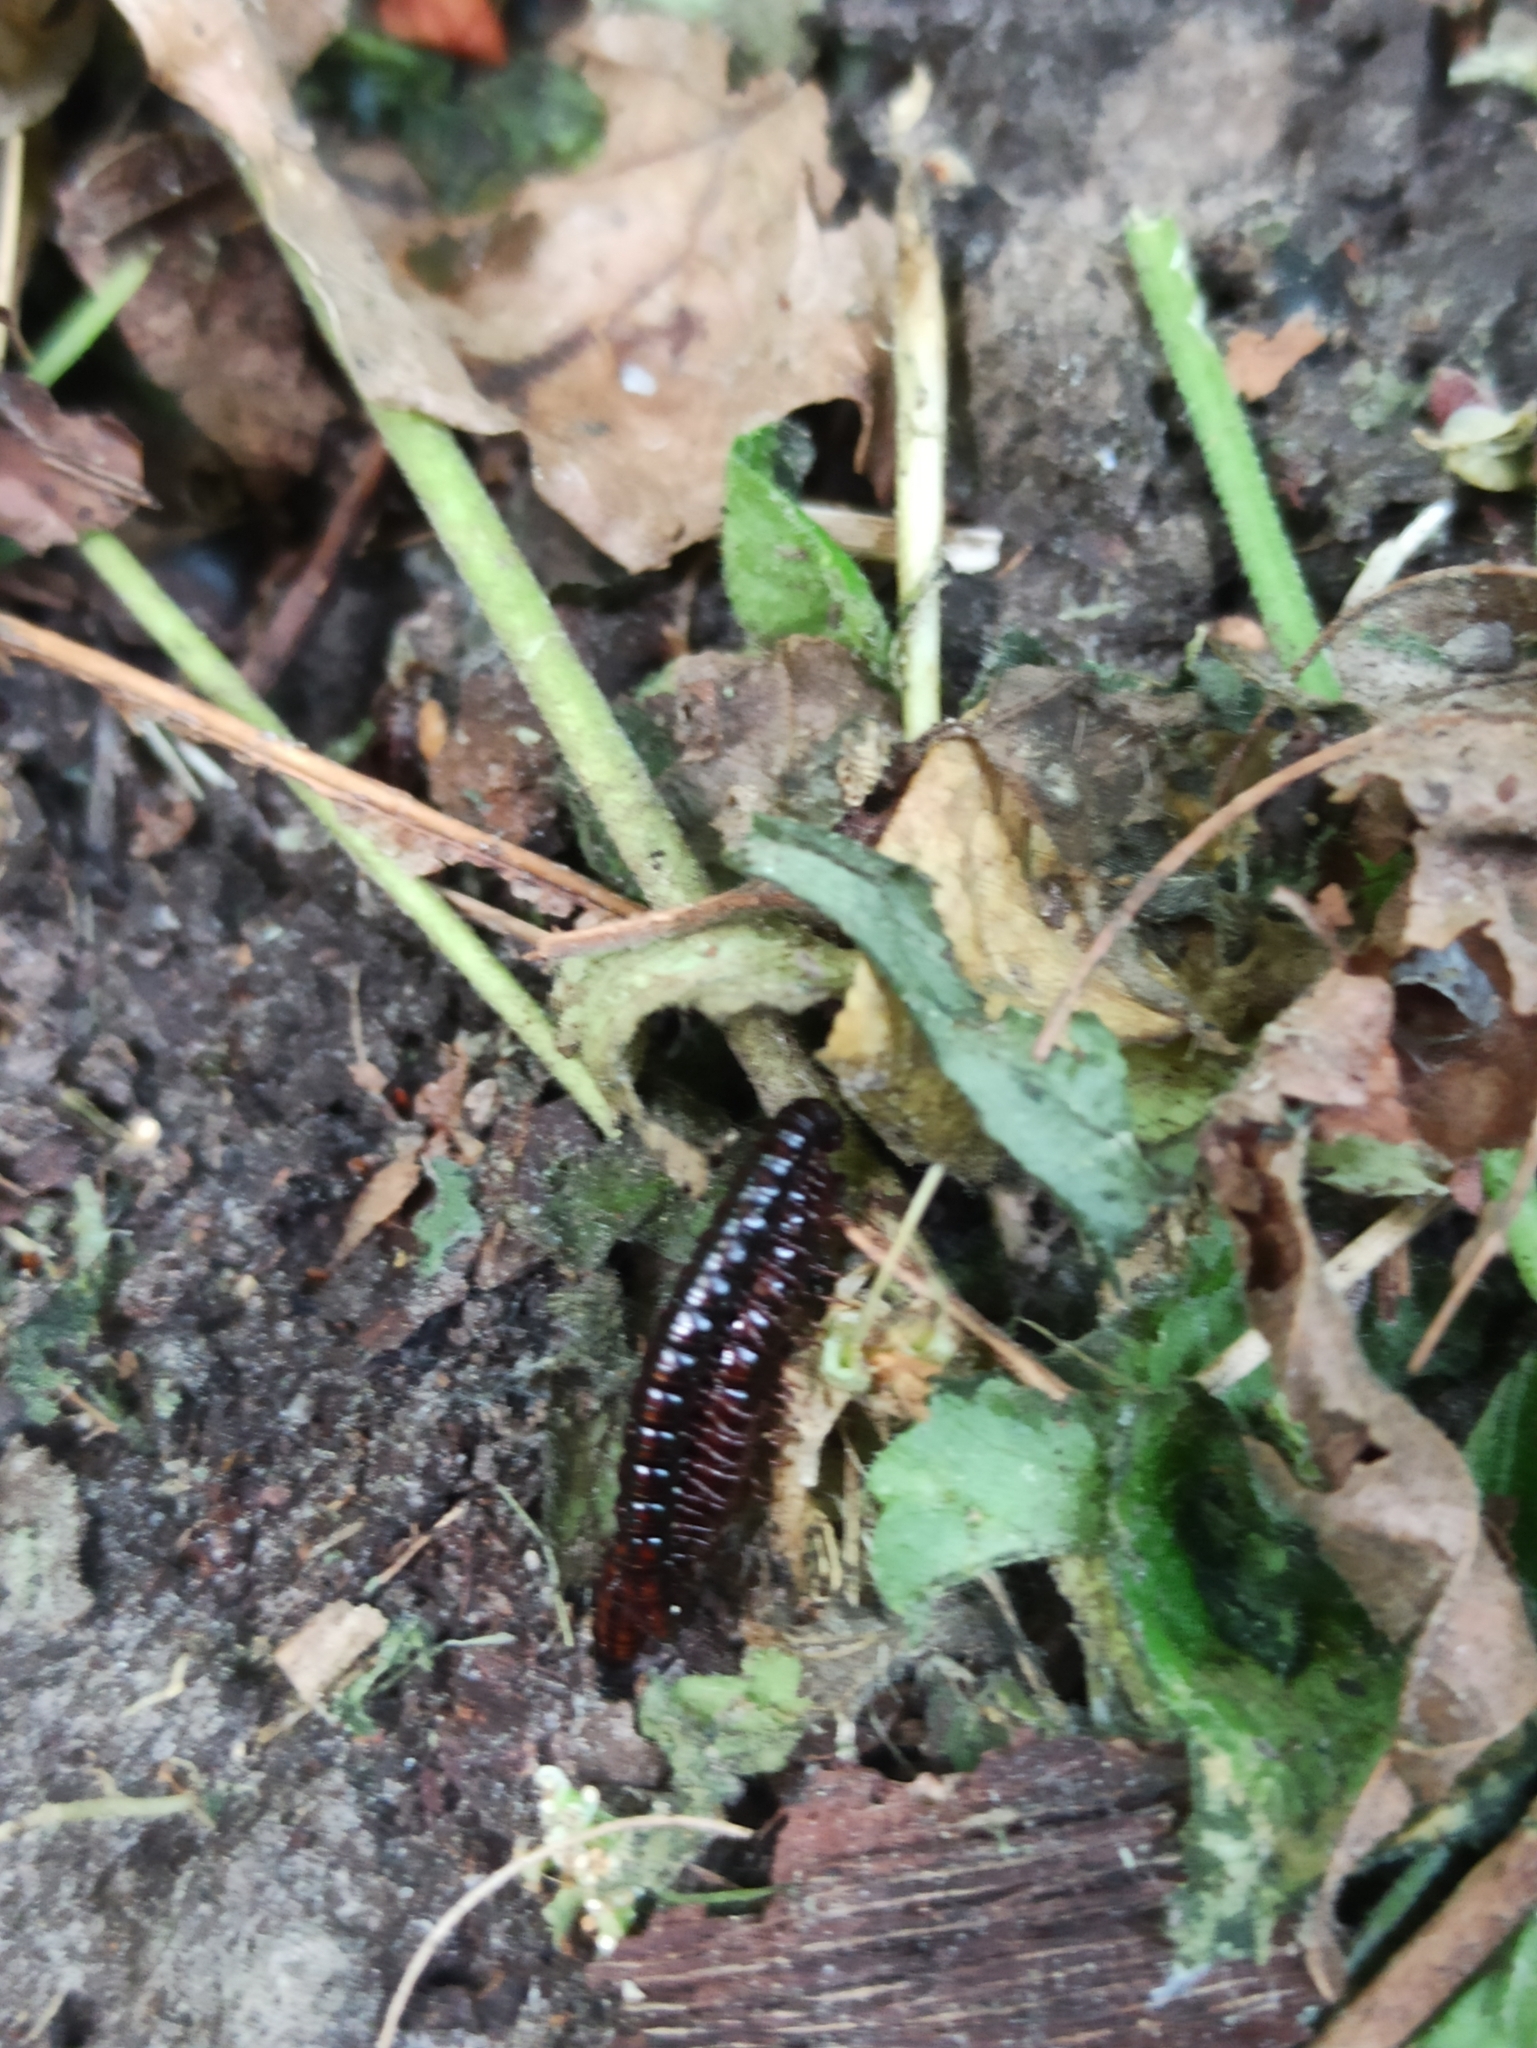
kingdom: Animalia
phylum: Arthropoda
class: Diplopoda
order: Polydesmida
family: Paradoxosomatidae
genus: Strongylosoma
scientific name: Strongylosoma stigmatosus
